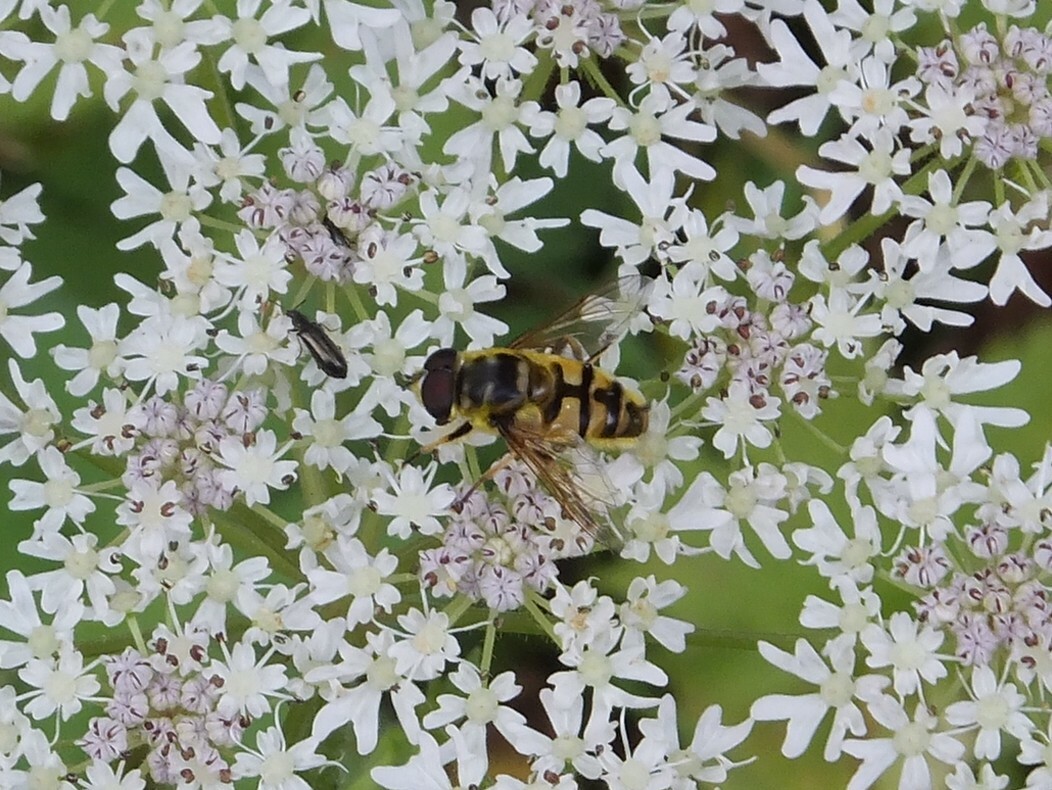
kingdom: Animalia
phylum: Arthropoda
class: Insecta
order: Diptera
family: Syrphidae
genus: Myathropa
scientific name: Myathropa florea
